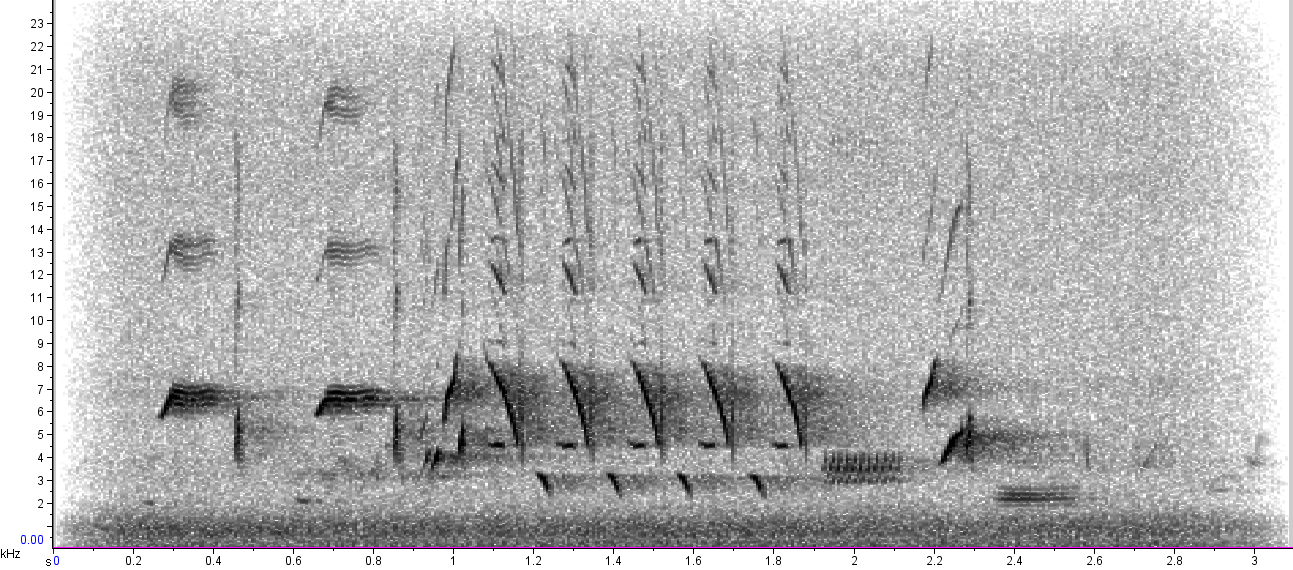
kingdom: Animalia
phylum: Chordata
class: Aves
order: Passeriformes
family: Passerellidae
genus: Melospiza
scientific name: Melospiza melodia
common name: Song sparrow
